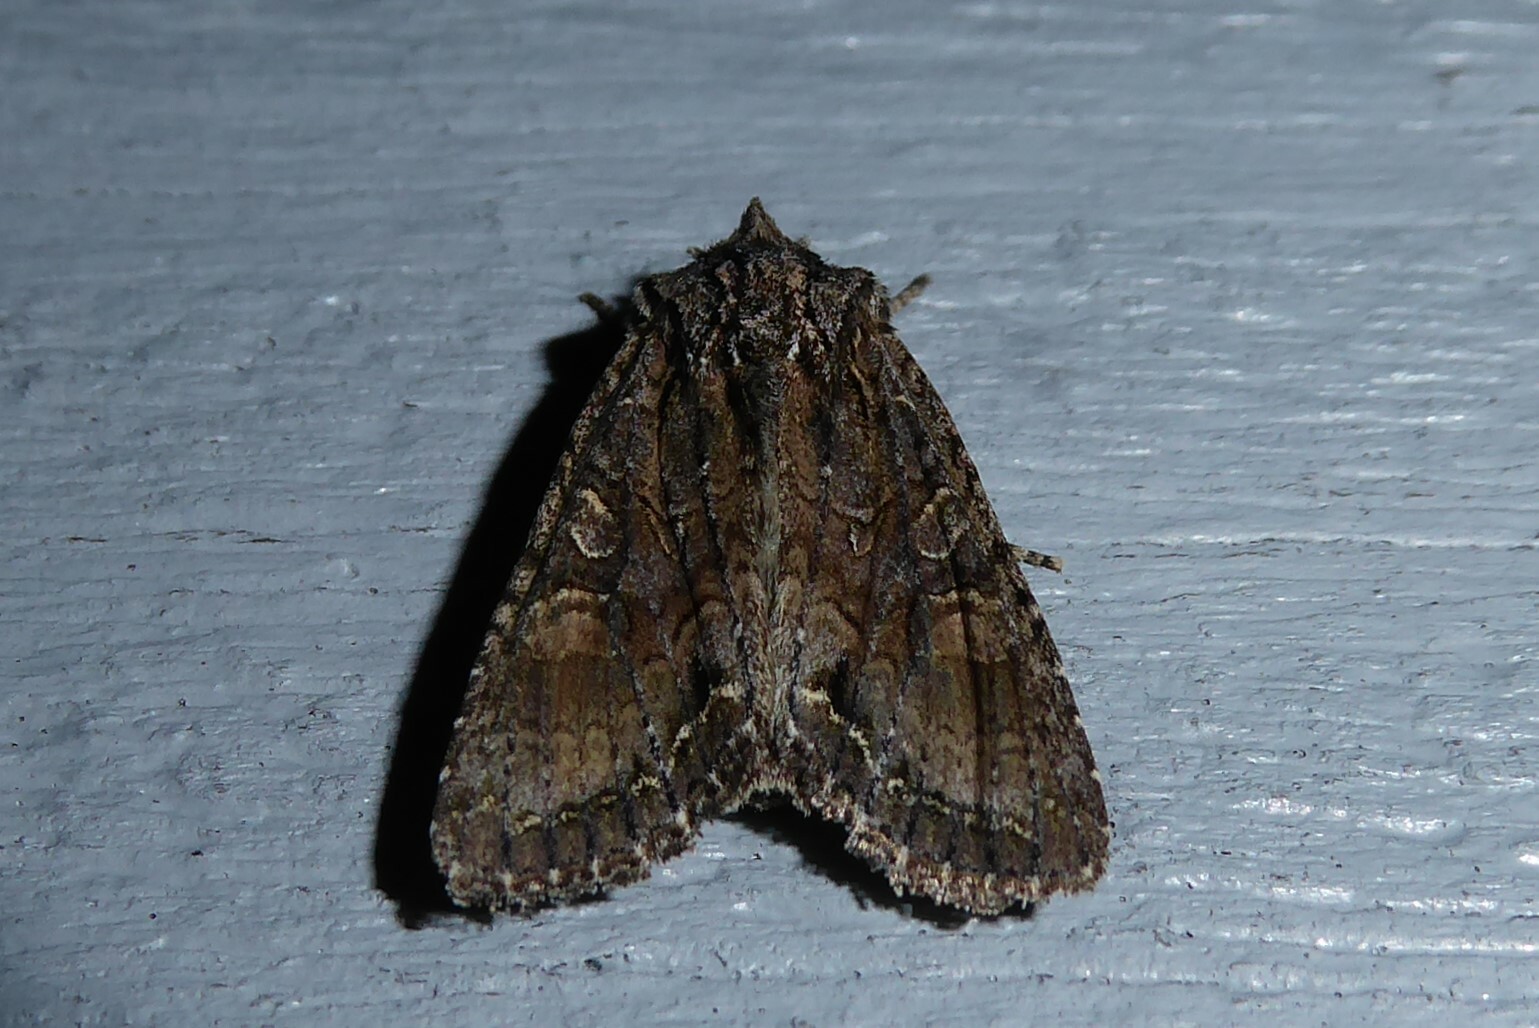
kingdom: Animalia
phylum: Arthropoda
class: Insecta
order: Lepidoptera
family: Noctuidae
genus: Ichneutica
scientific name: Ichneutica mutans
